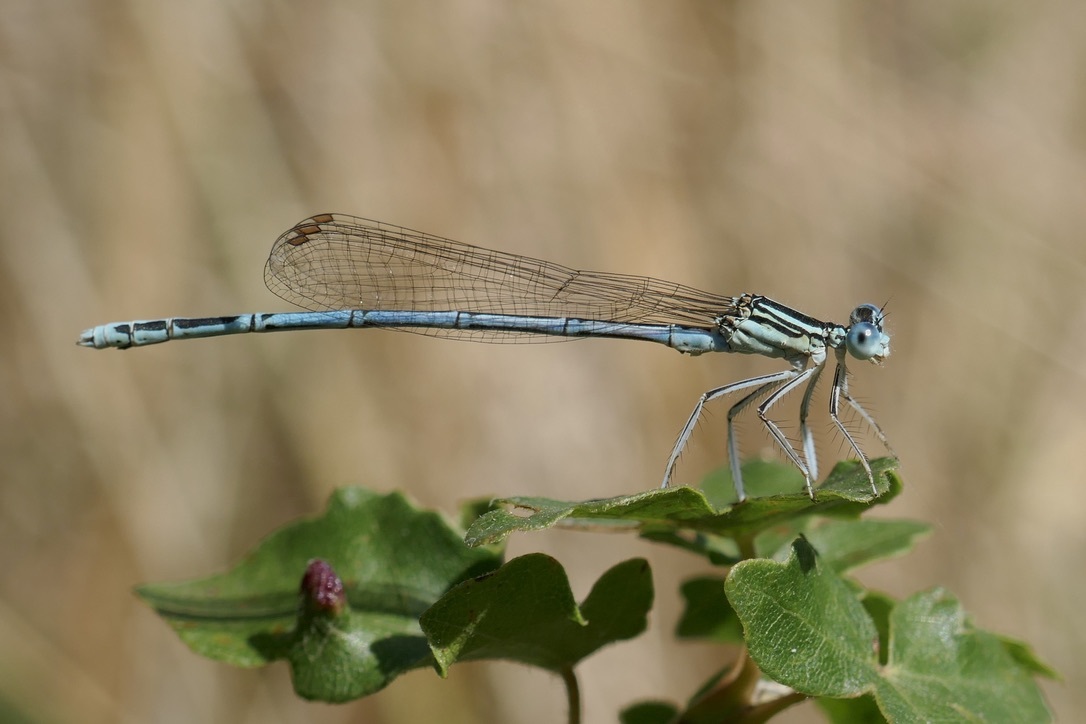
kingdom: Animalia
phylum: Arthropoda
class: Insecta
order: Odonata
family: Platycnemididae
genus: Platycnemis
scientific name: Platycnemis pennipes
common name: White-legged damselfly
